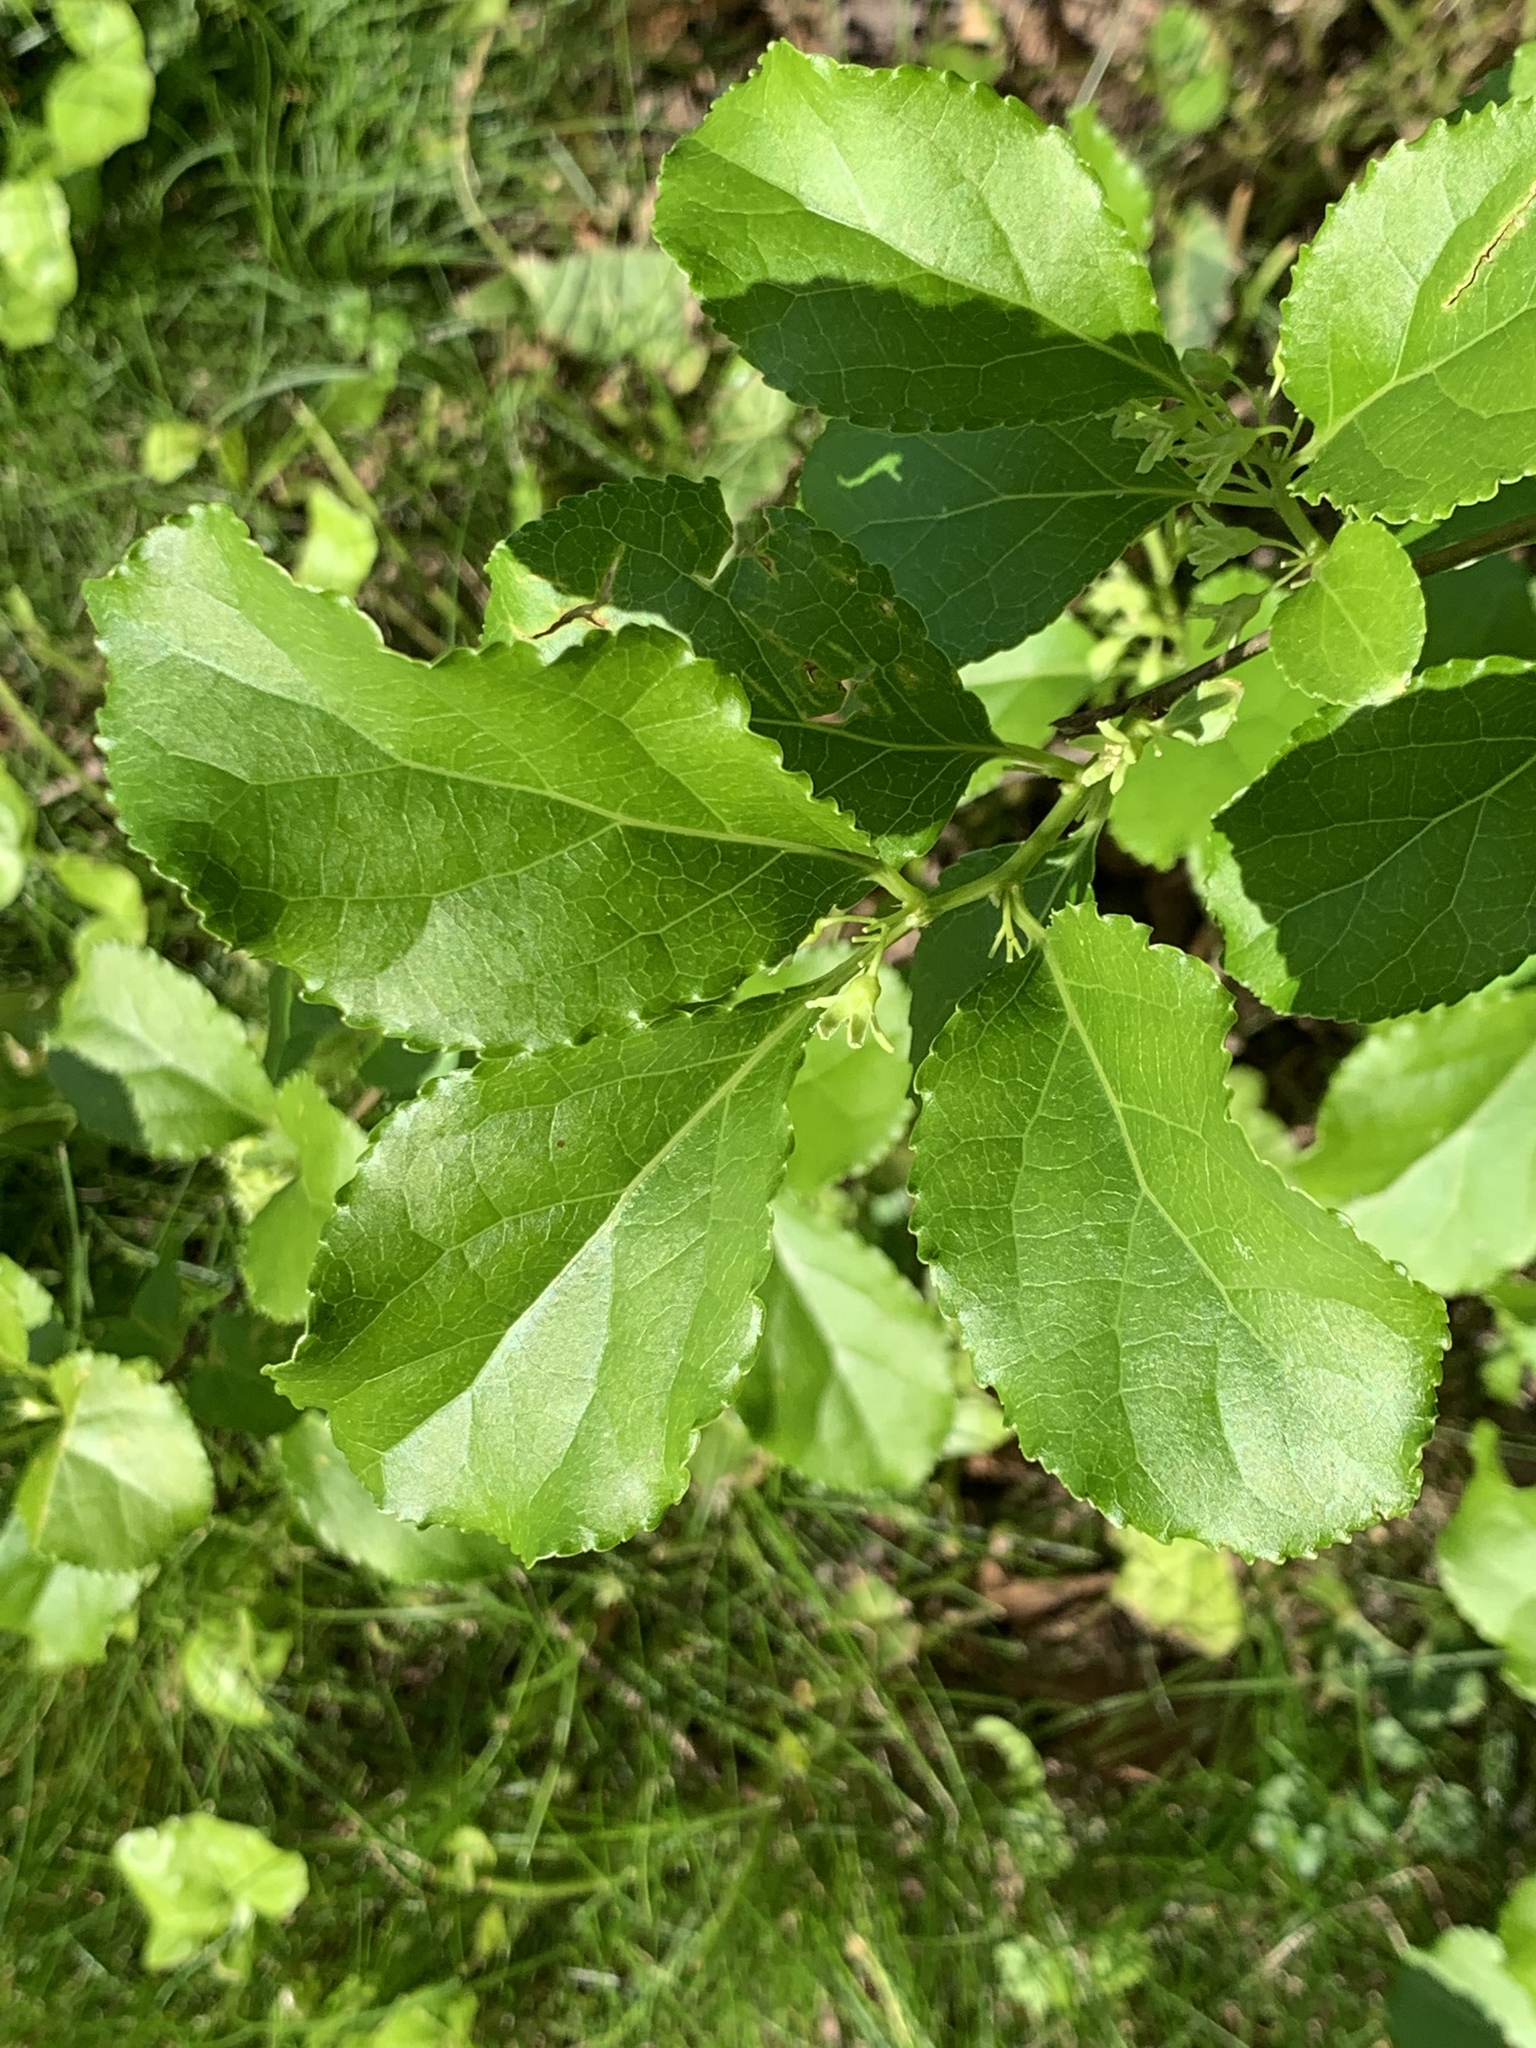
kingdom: Plantae
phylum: Tracheophyta
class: Magnoliopsida
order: Celastrales
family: Celastraceae
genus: Celastrus
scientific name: Celastrus orbiculatus
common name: Oriental bittersweet
